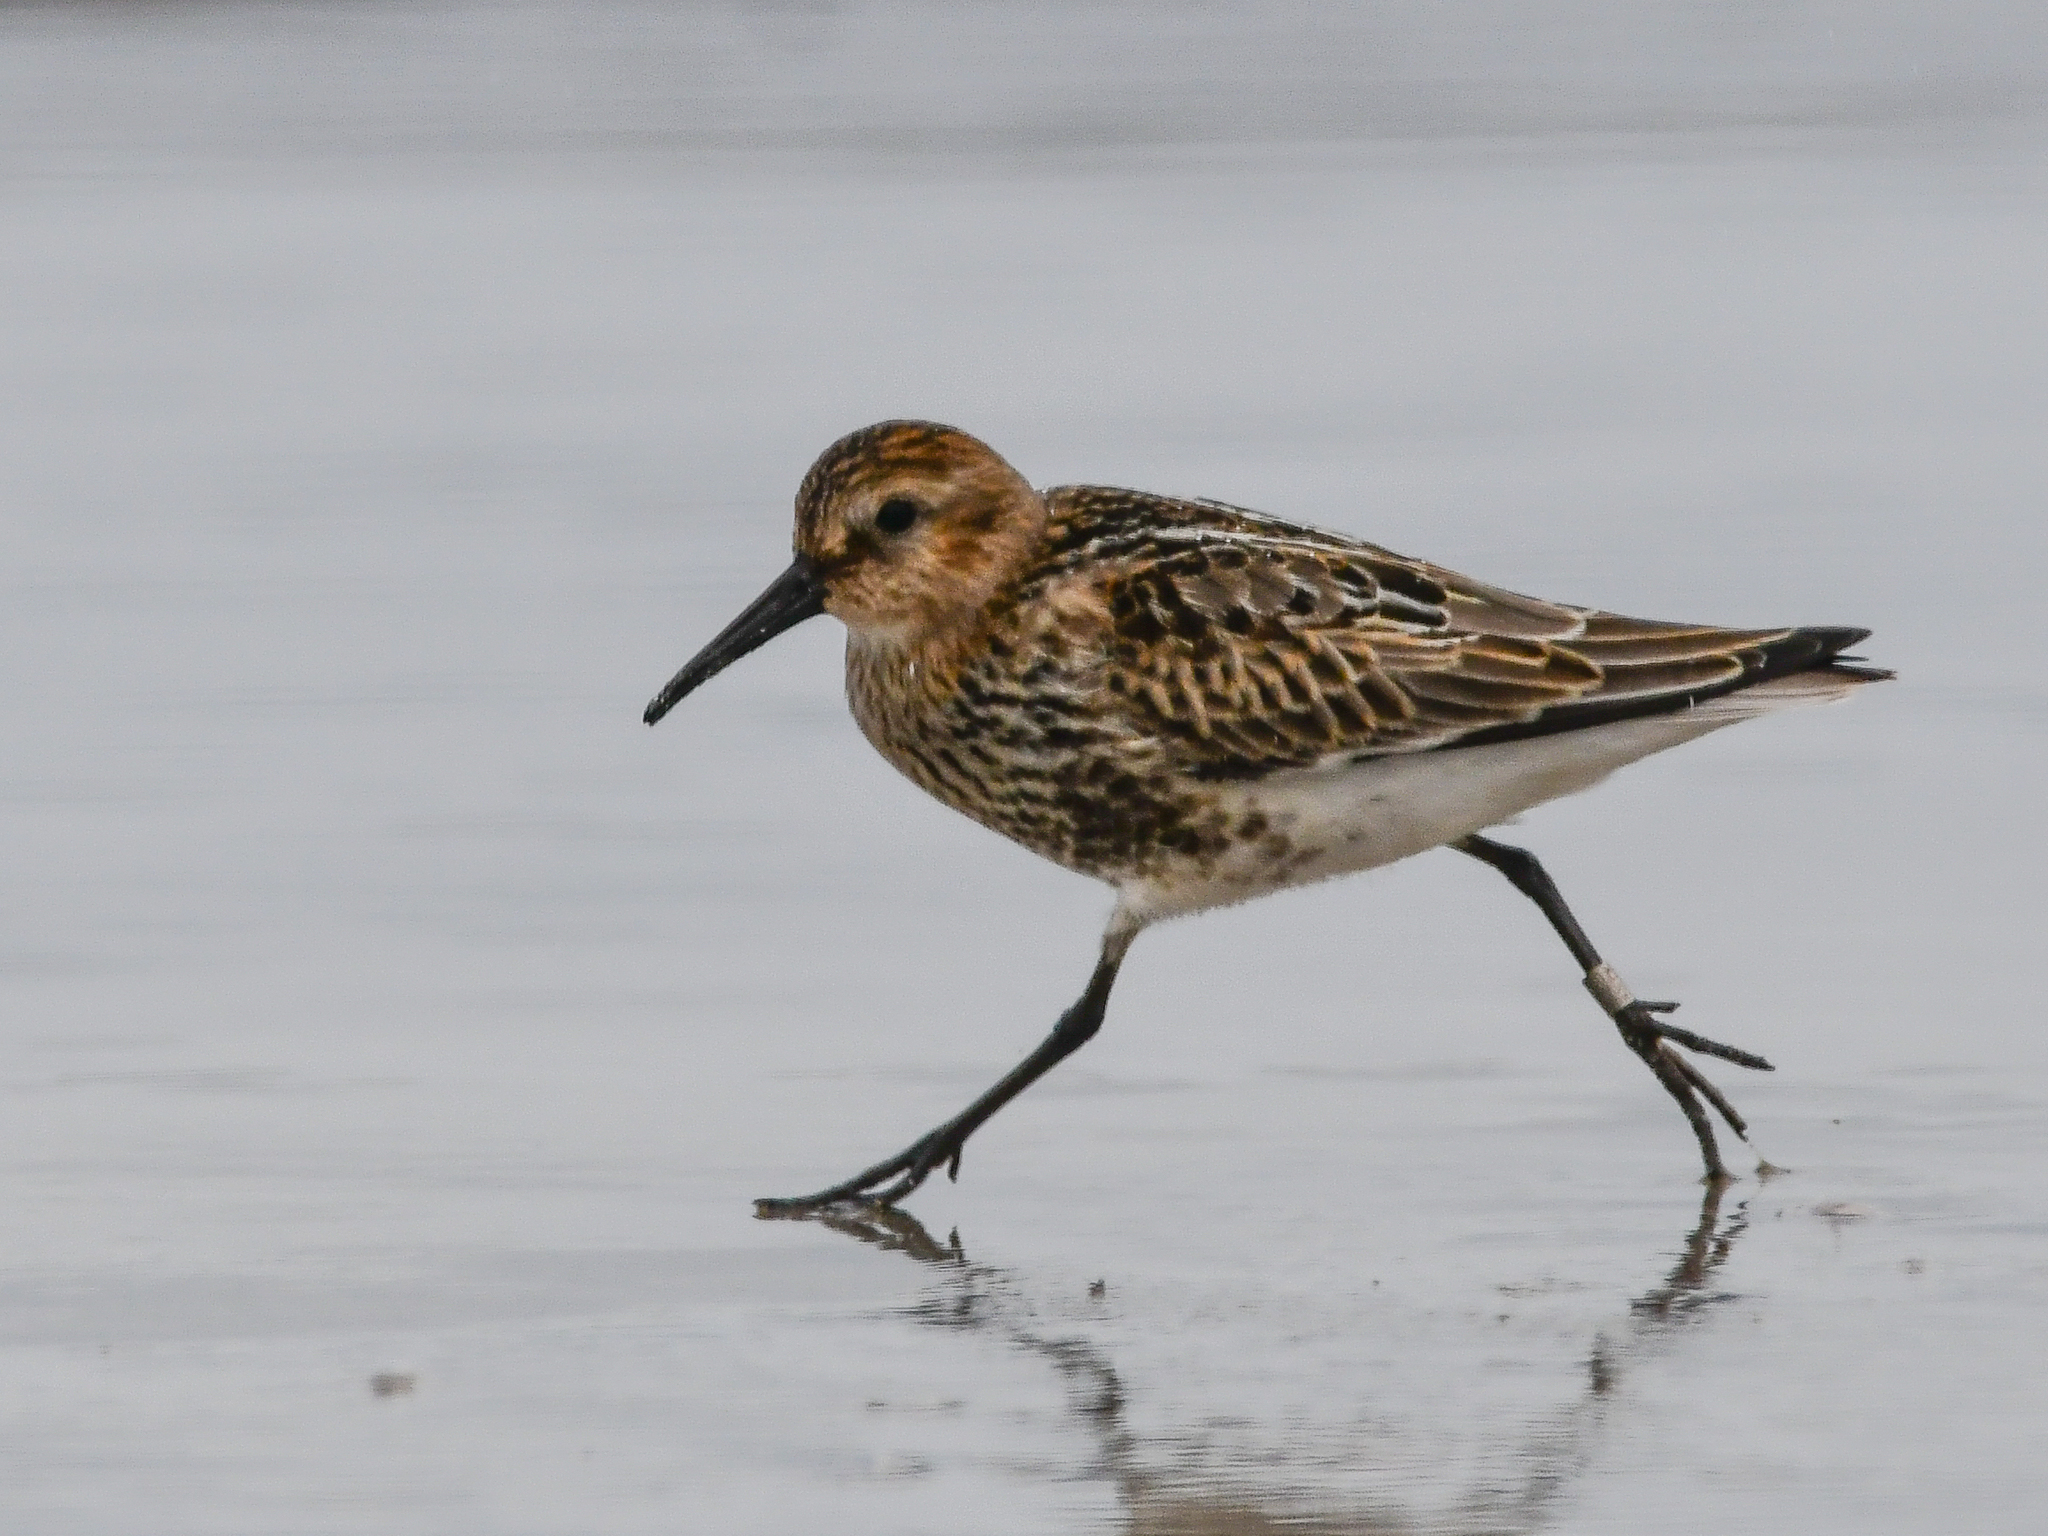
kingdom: Animalia
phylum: Chordata
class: Aves
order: Charadriiformes
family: Scolopacidae
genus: Calidris
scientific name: Calidris alpina
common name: Dunlin
